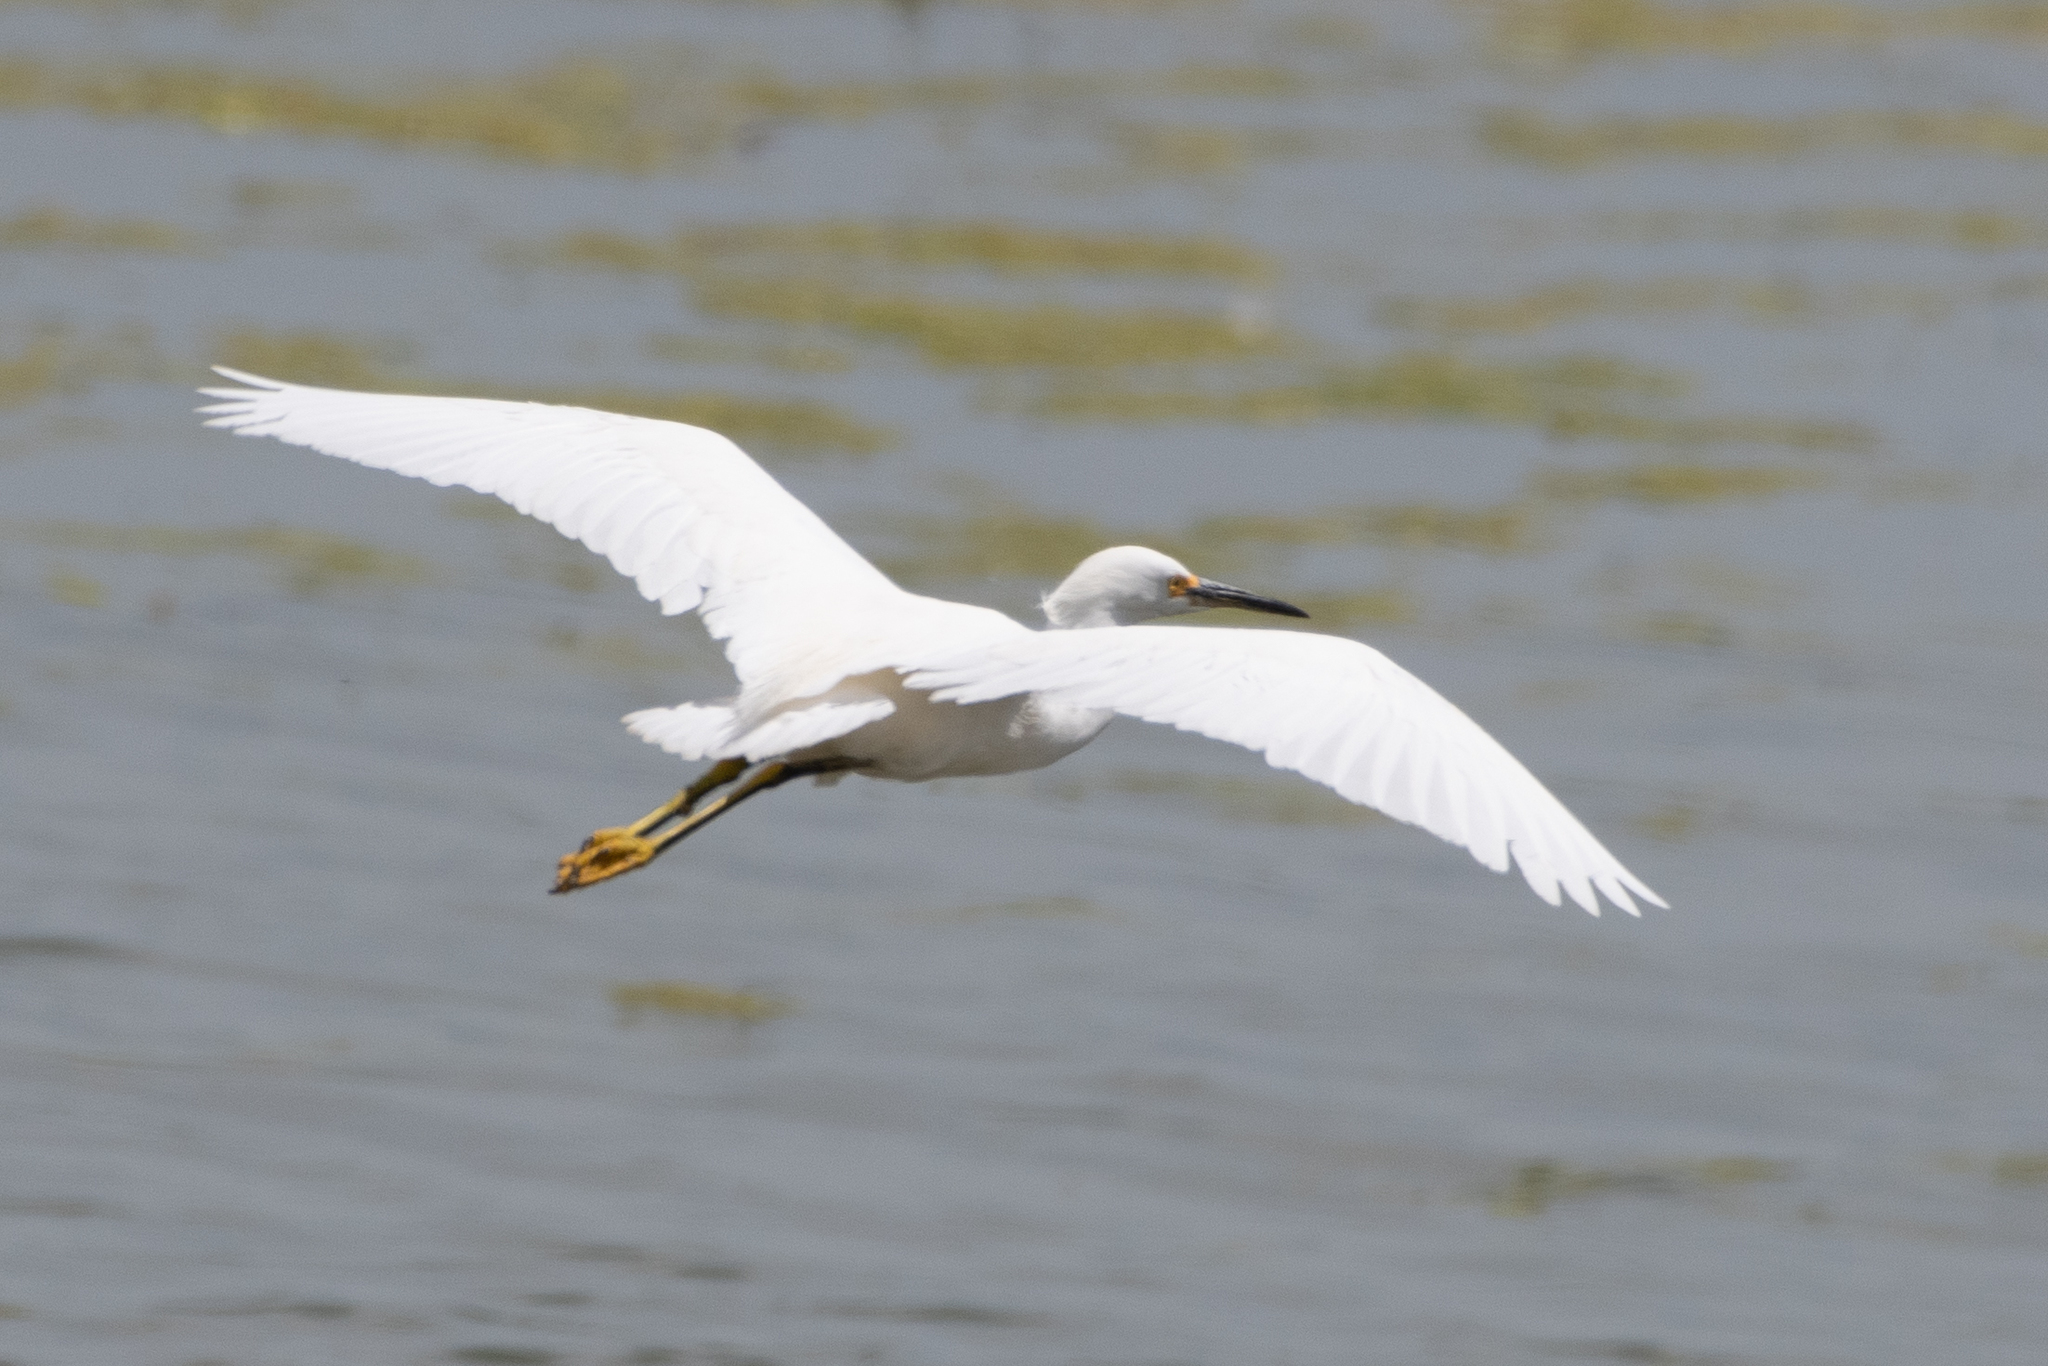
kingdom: Animalia
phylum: Chordata
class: Aves
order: Pelecaniformes
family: Ardeidae
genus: Egretta
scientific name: Egretta thula
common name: Snowy egret
